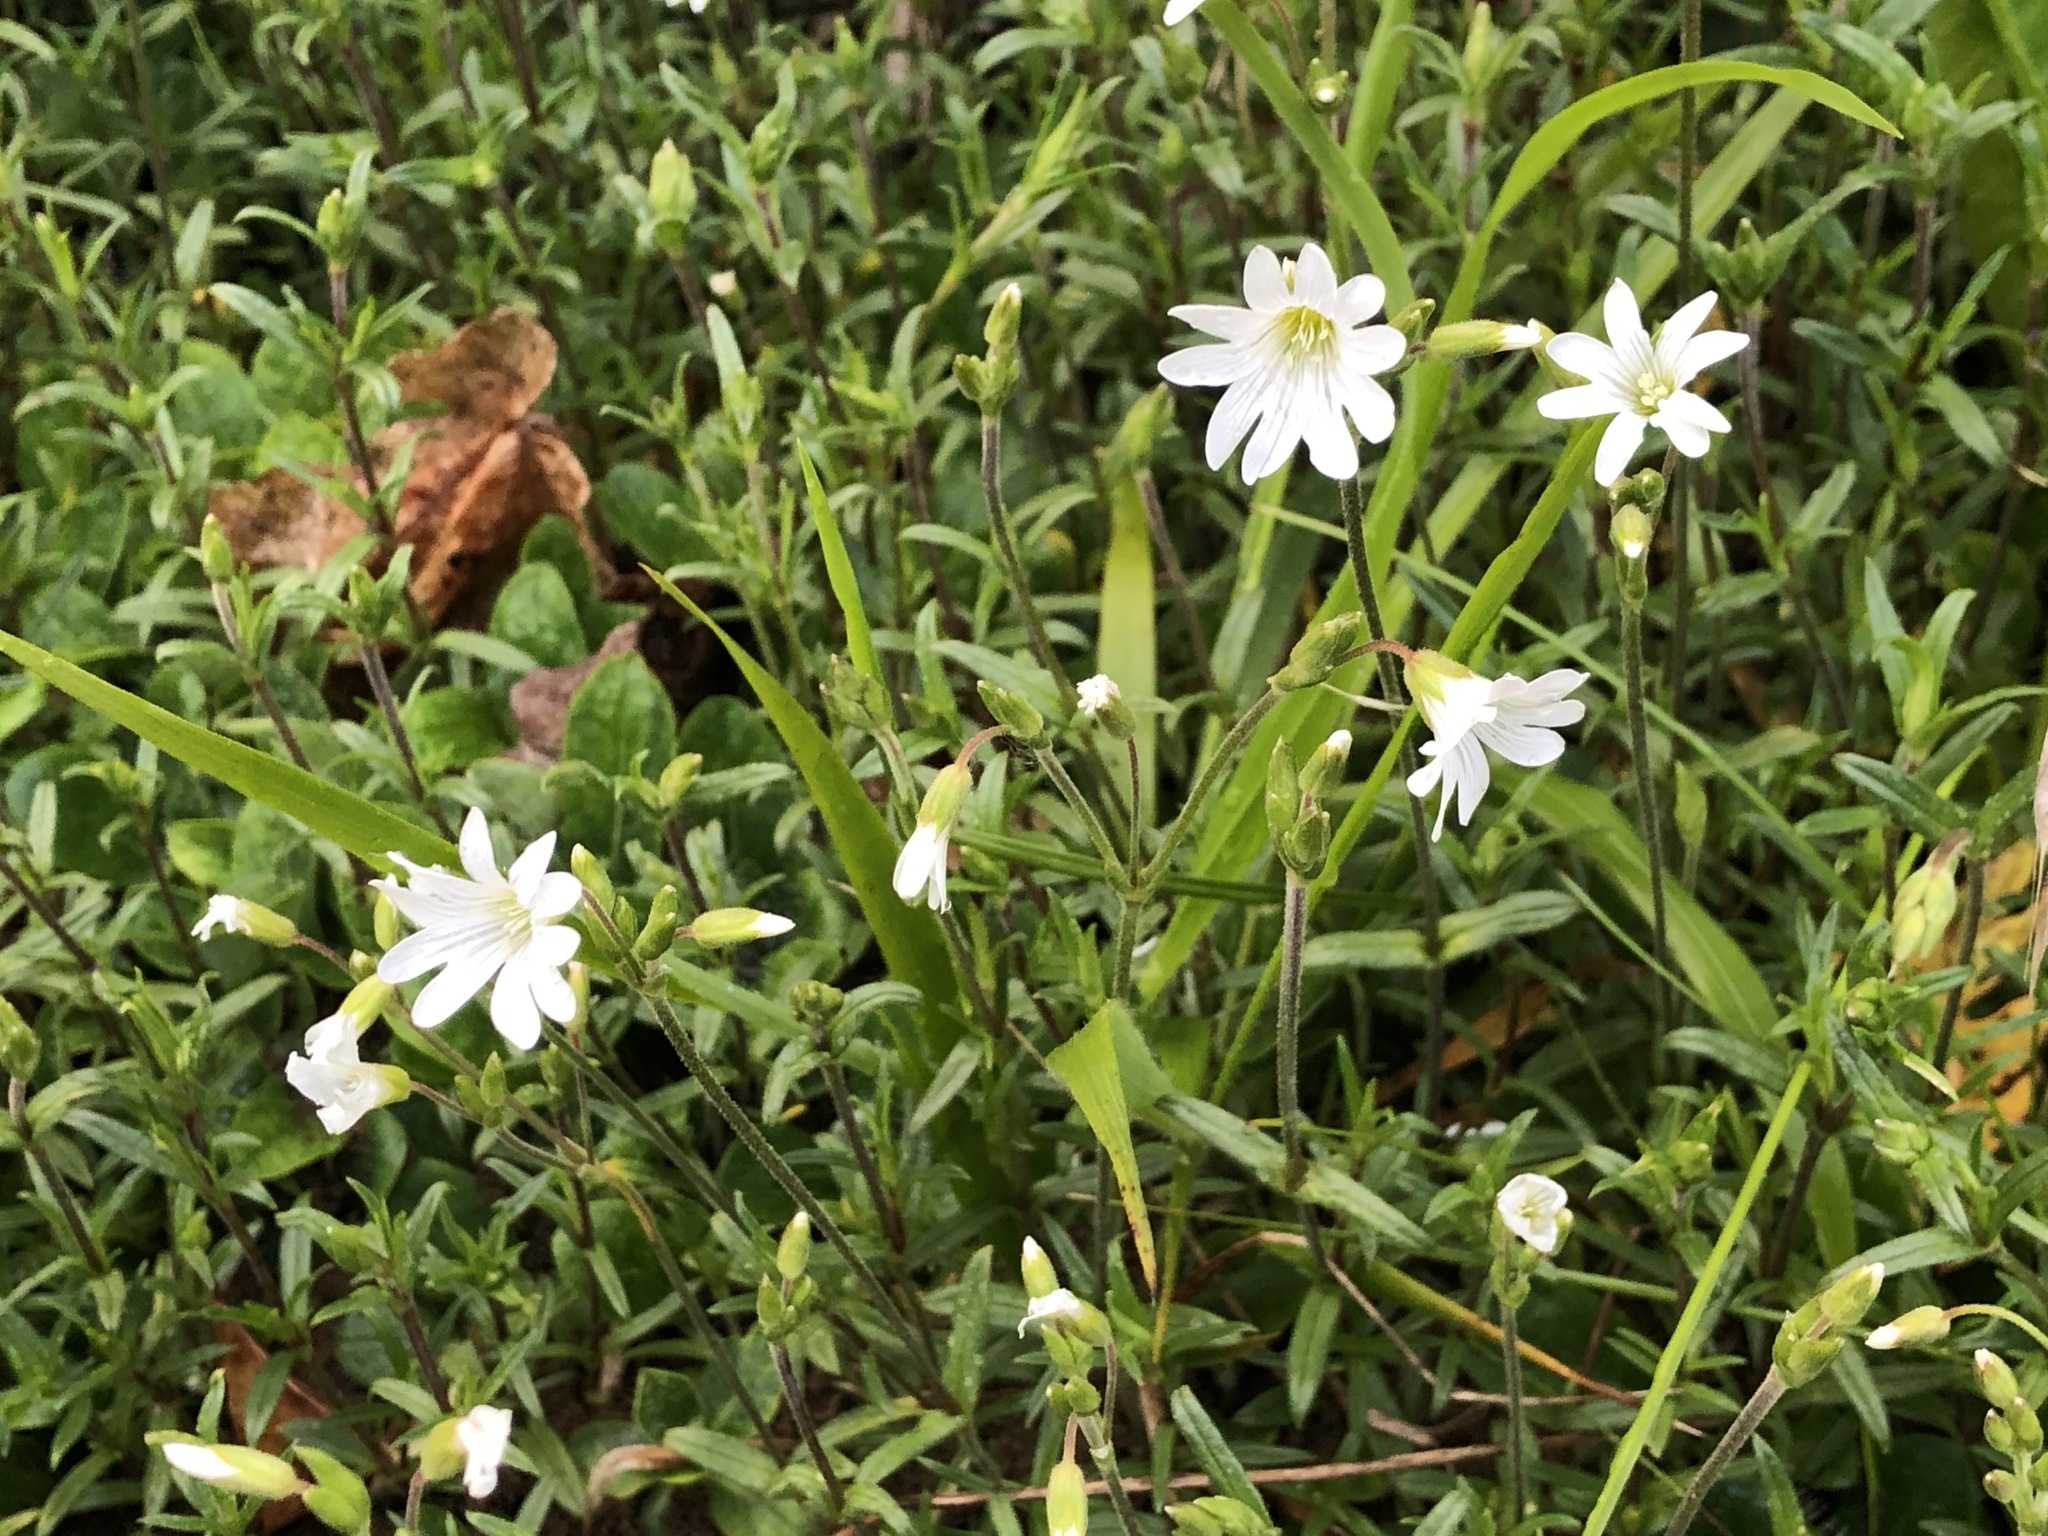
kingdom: Plantae
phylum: Tracheophyta
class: Magnoliopsida
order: Caryophyllales
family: Caryophyllaceae
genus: Cerastium
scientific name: Cerastium arvense
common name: Field mouse-ear
